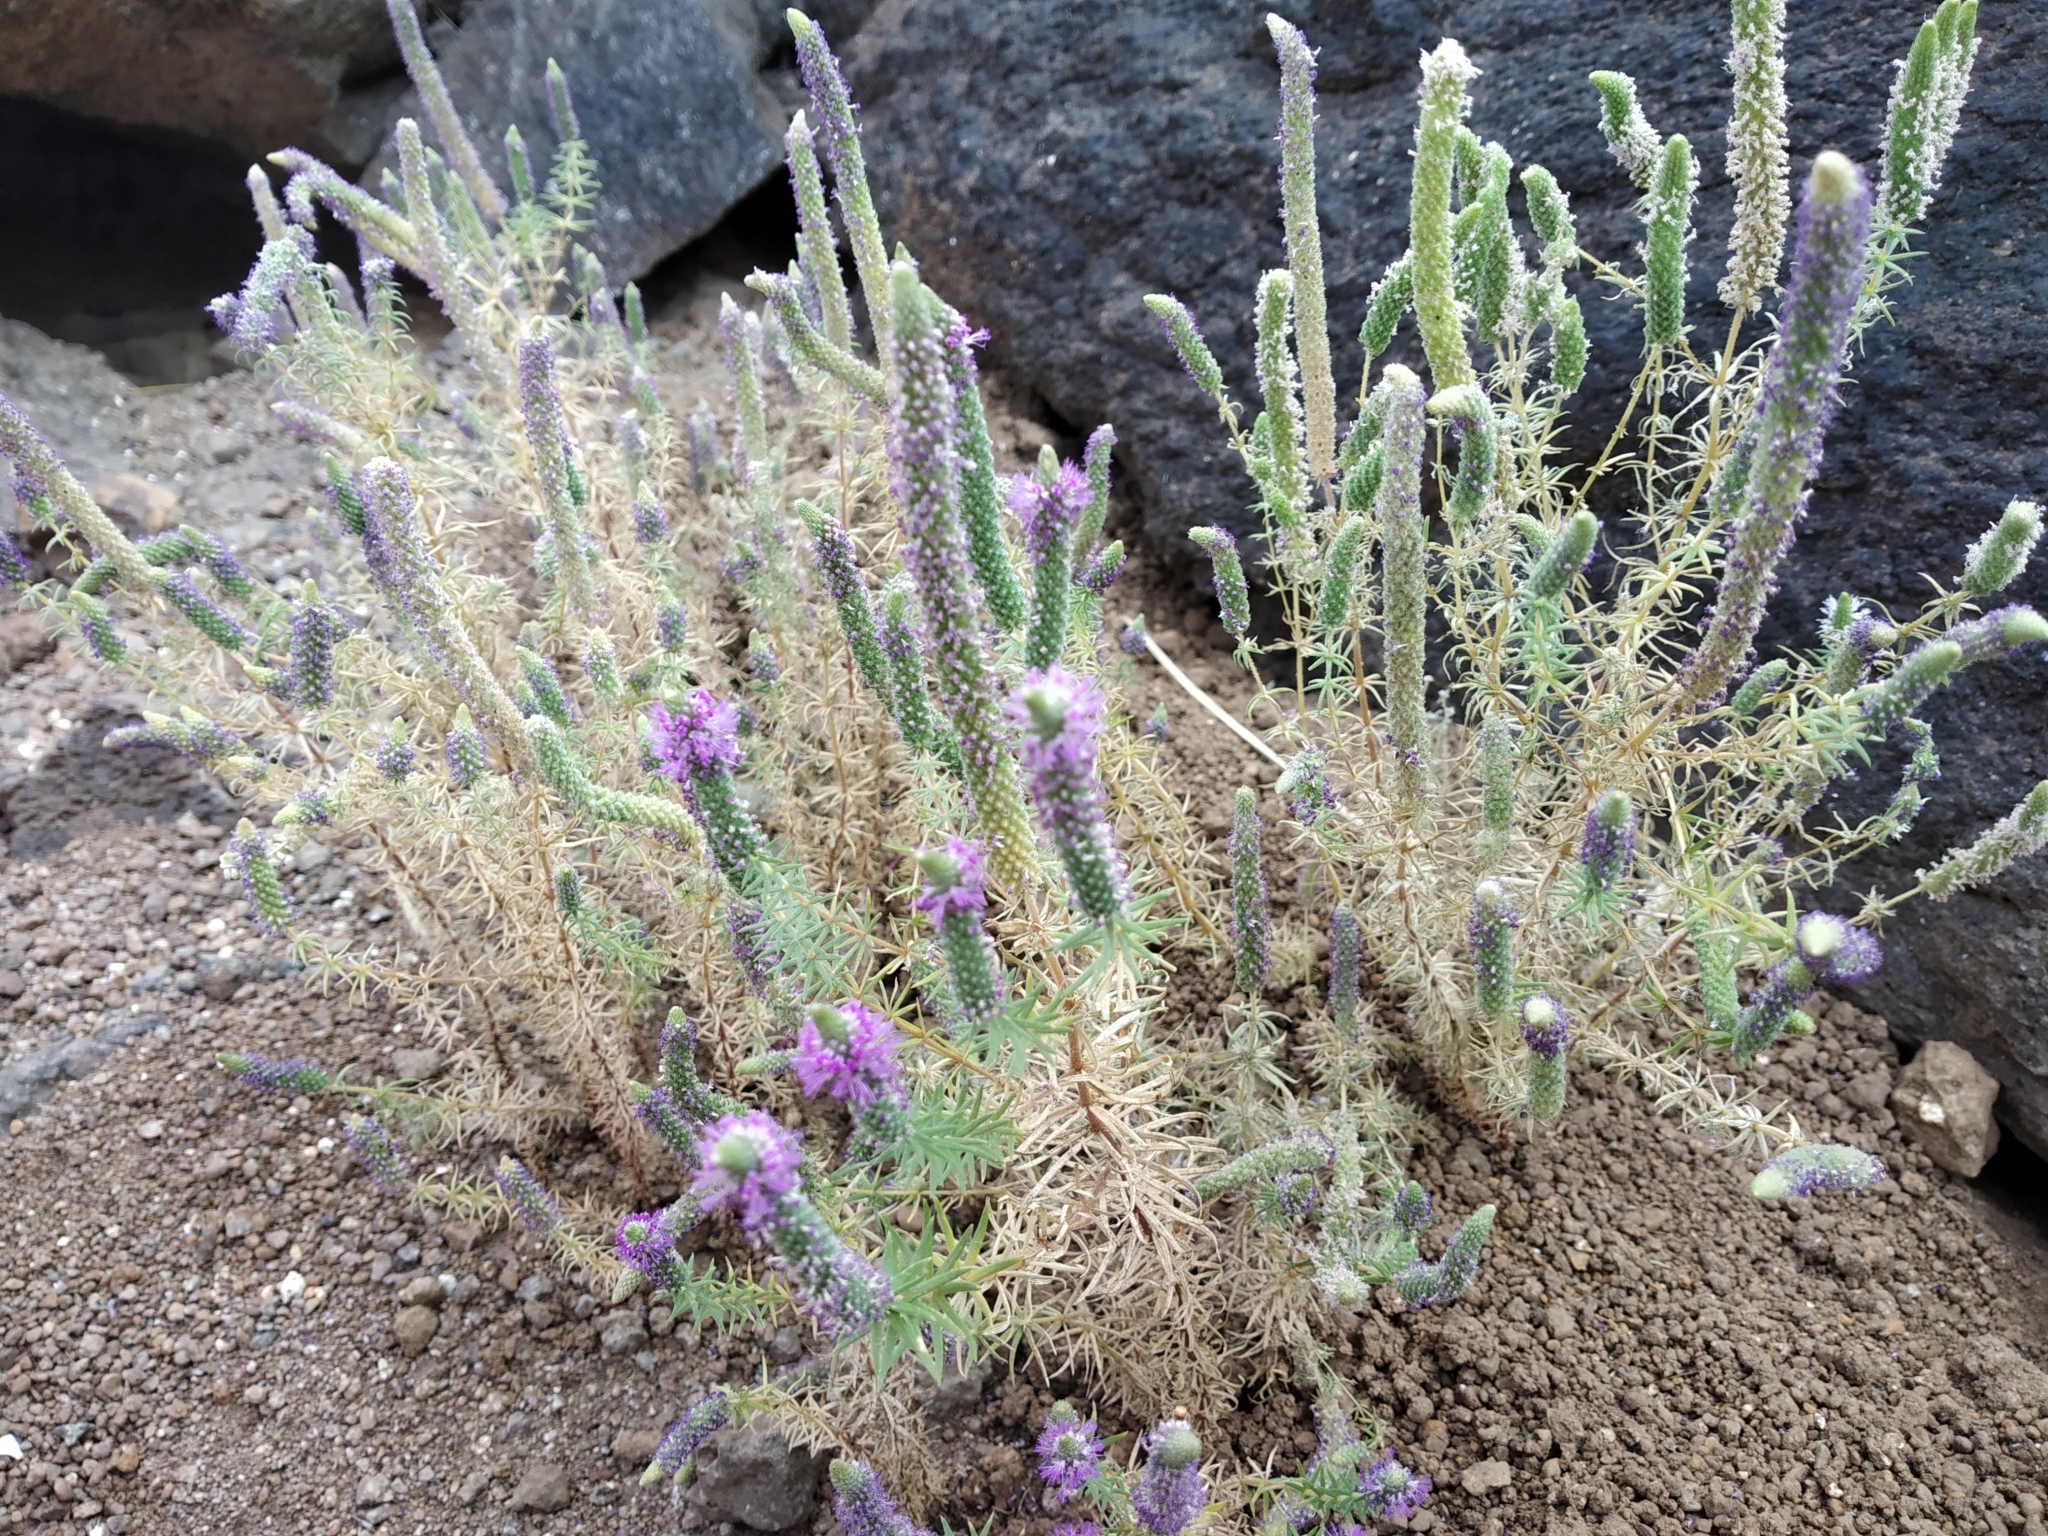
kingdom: Plantae
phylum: Tracheophyta
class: Magnoliopsida
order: Lamiales
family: Lamiaceae
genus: Pogostemon
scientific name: Pogostemon deccanensis
